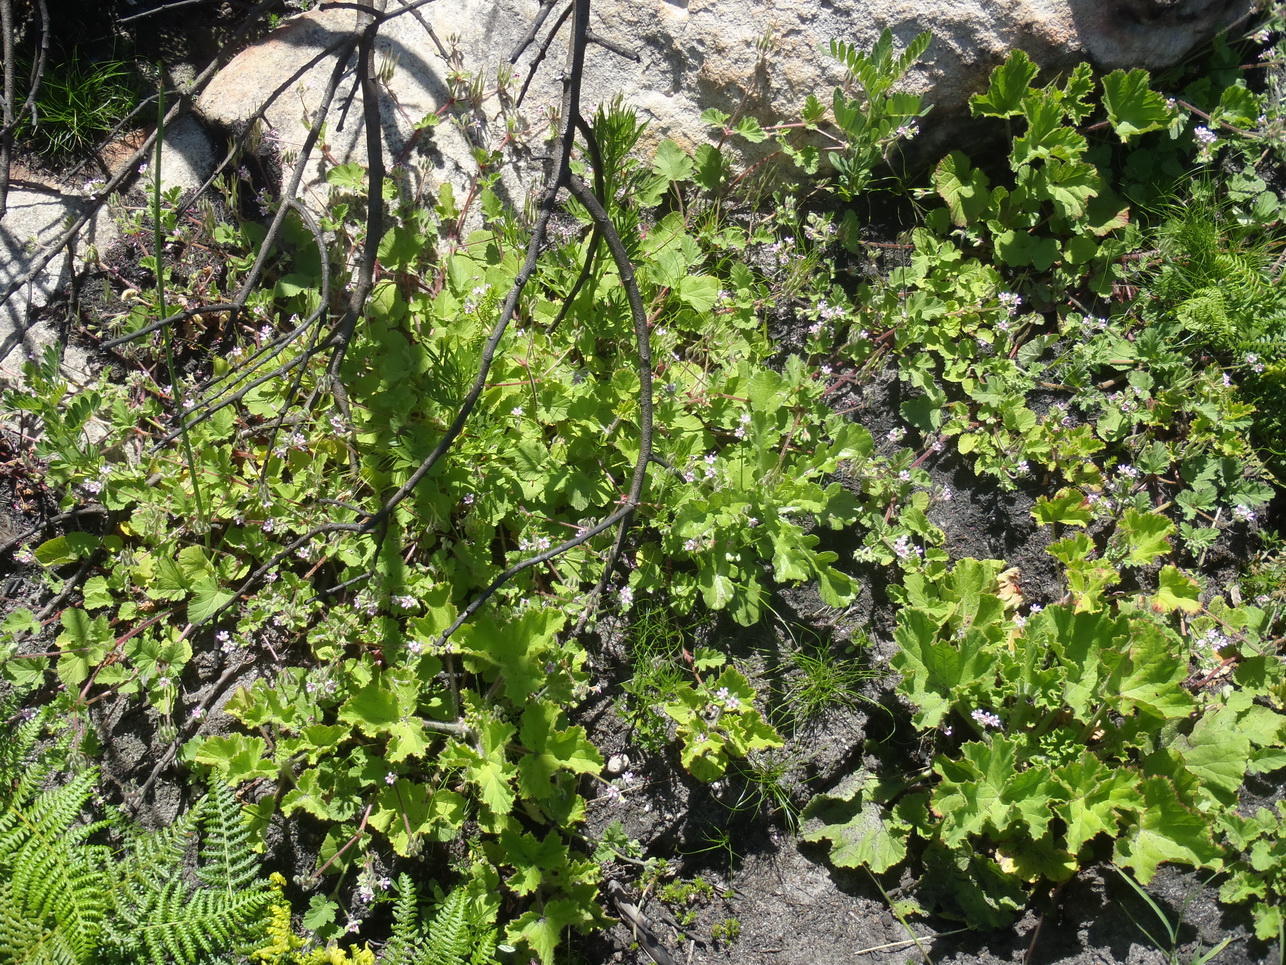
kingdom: Plantae
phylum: Tracheophyta
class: Magnoliopsida
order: Geraniales
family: Geraniaceae
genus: Pelargonium
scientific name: Pelargonium althaeoides
